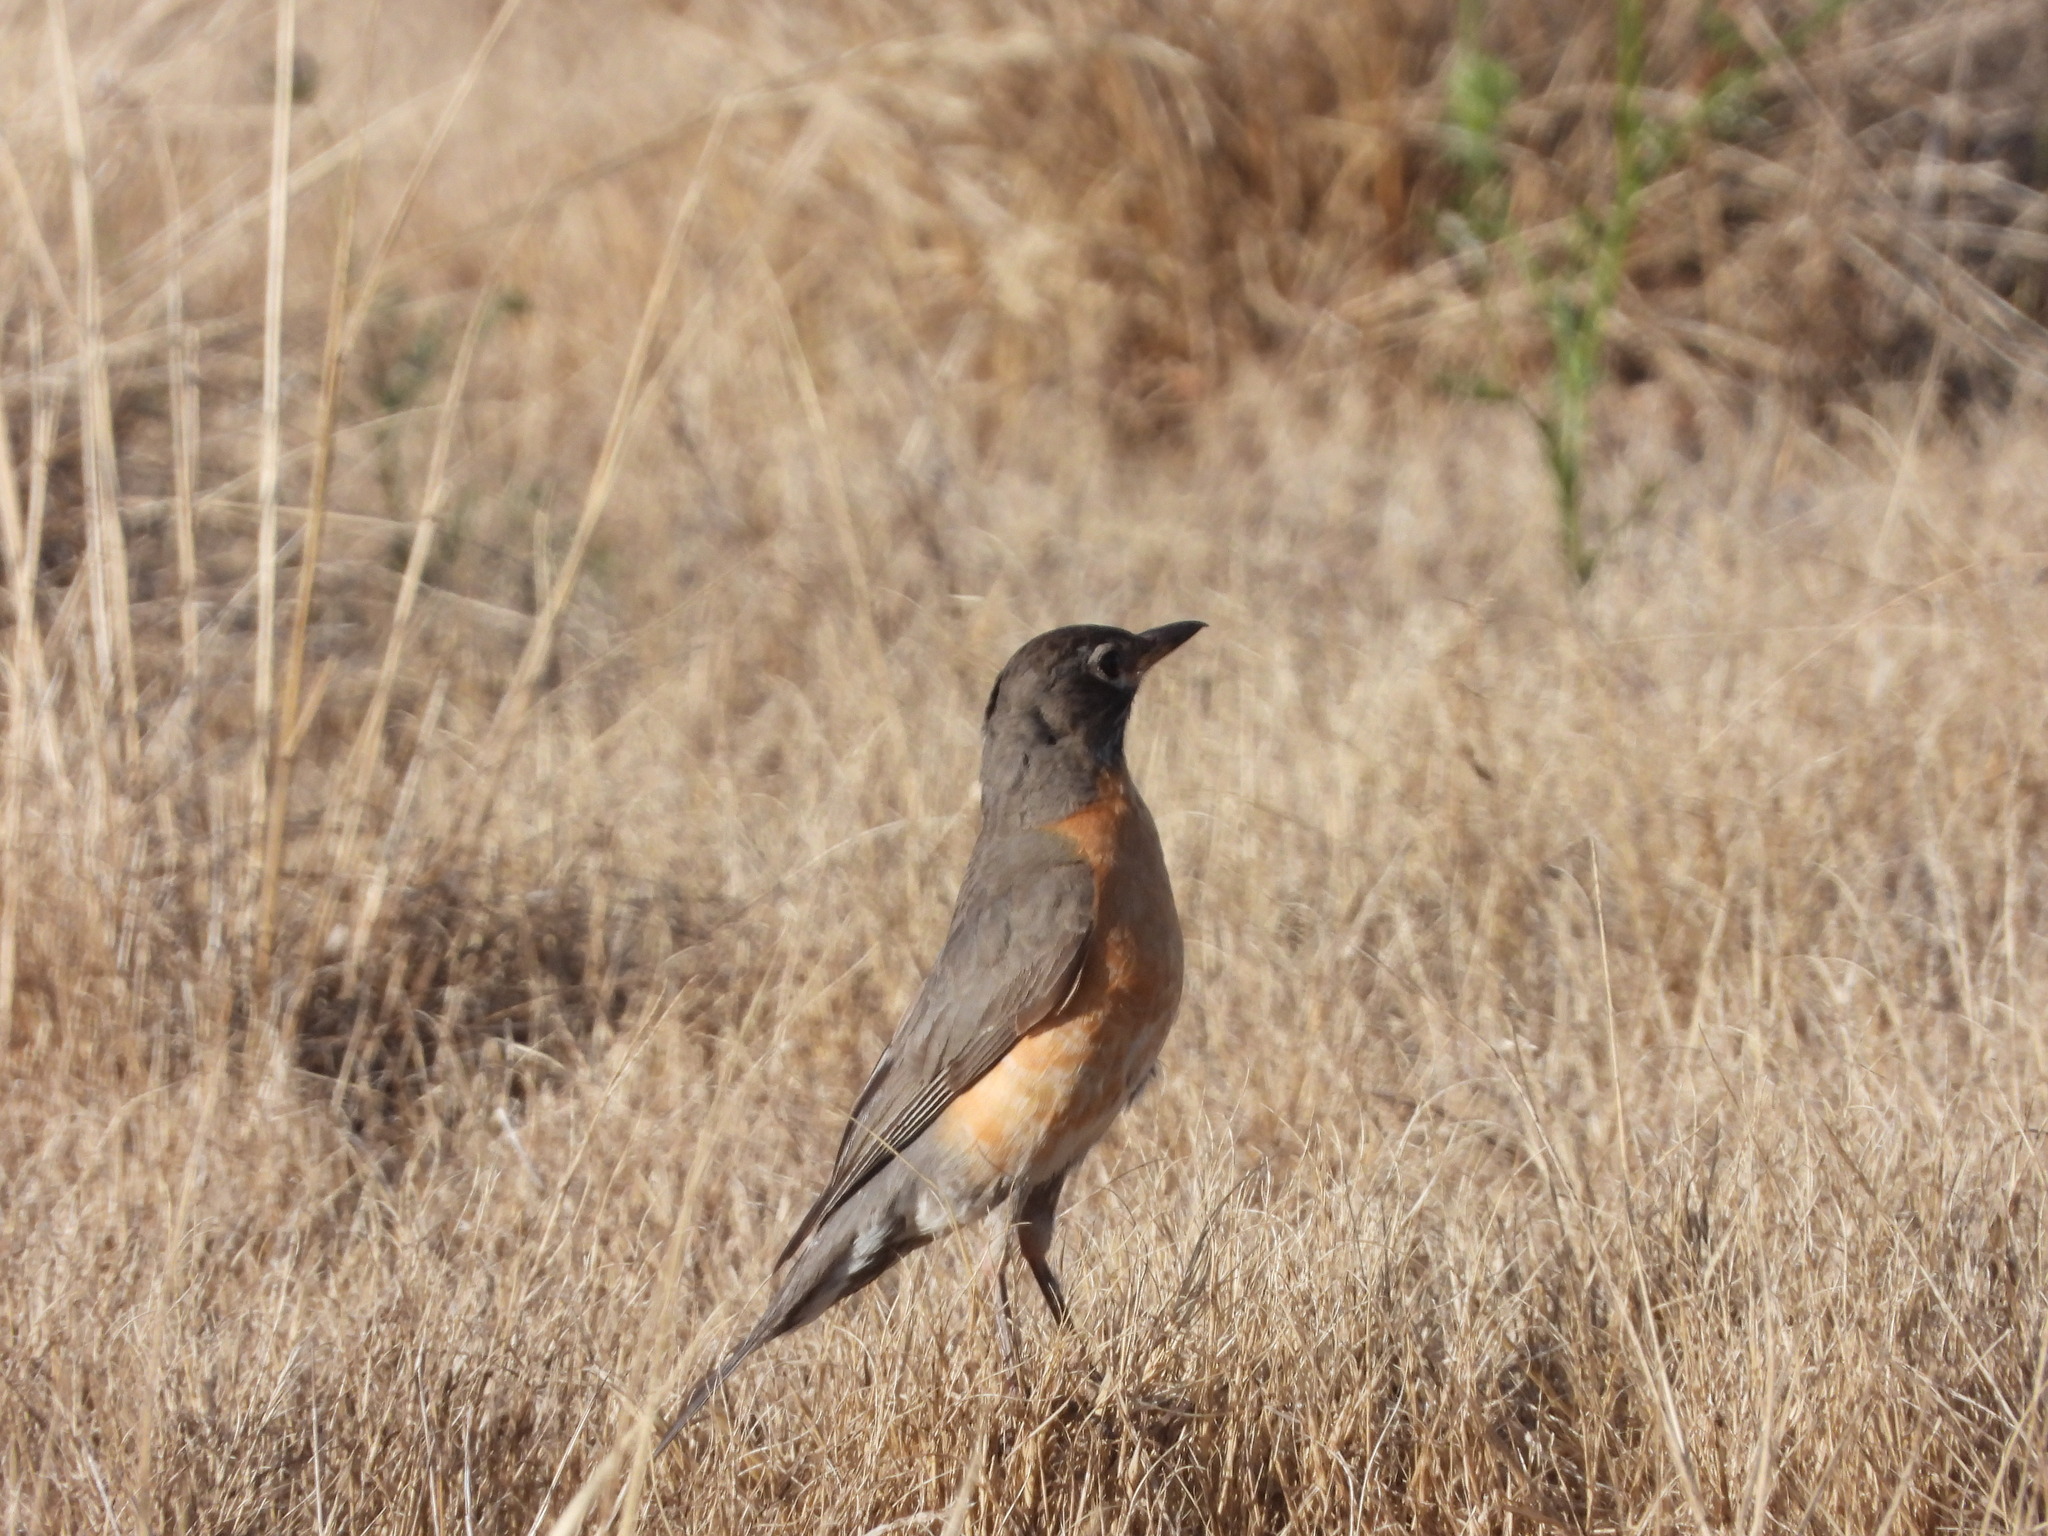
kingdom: Animalia
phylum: Chordata
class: Aves
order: Passeriformes
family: Turdidae
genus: Turdus
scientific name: Turdus migratorius
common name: American robin
